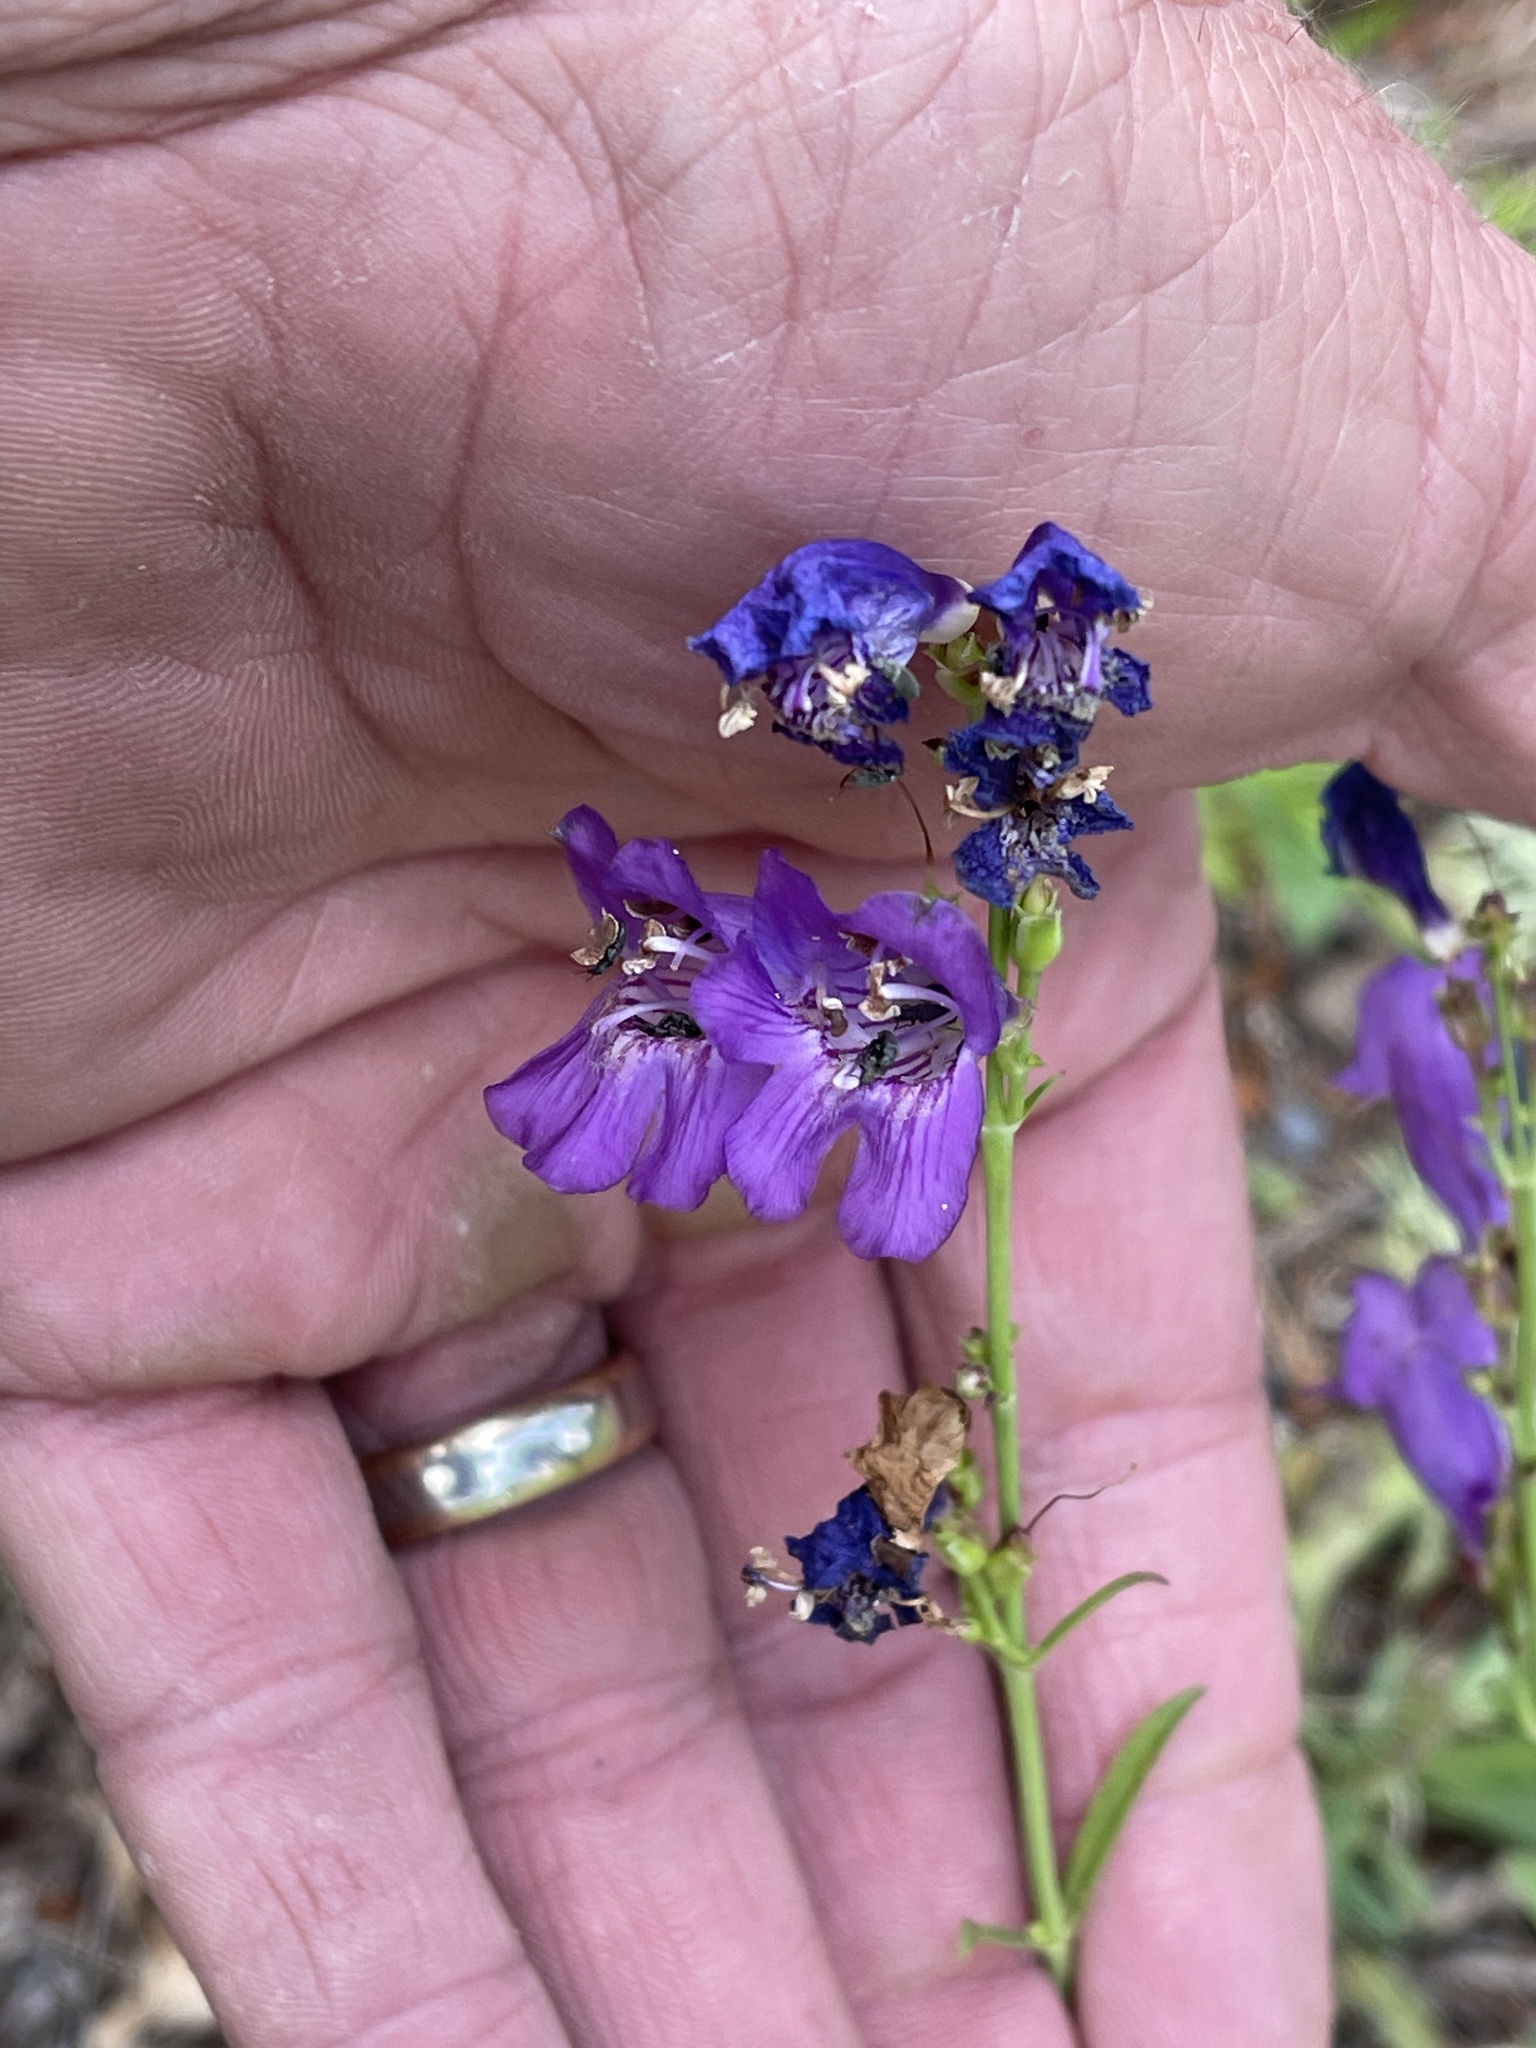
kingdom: Plantae
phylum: Tracheophyta
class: Magnoliopsida
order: Lamiales
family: Plantaginaceae
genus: Penstemon
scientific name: Penstemon neomexicanus
